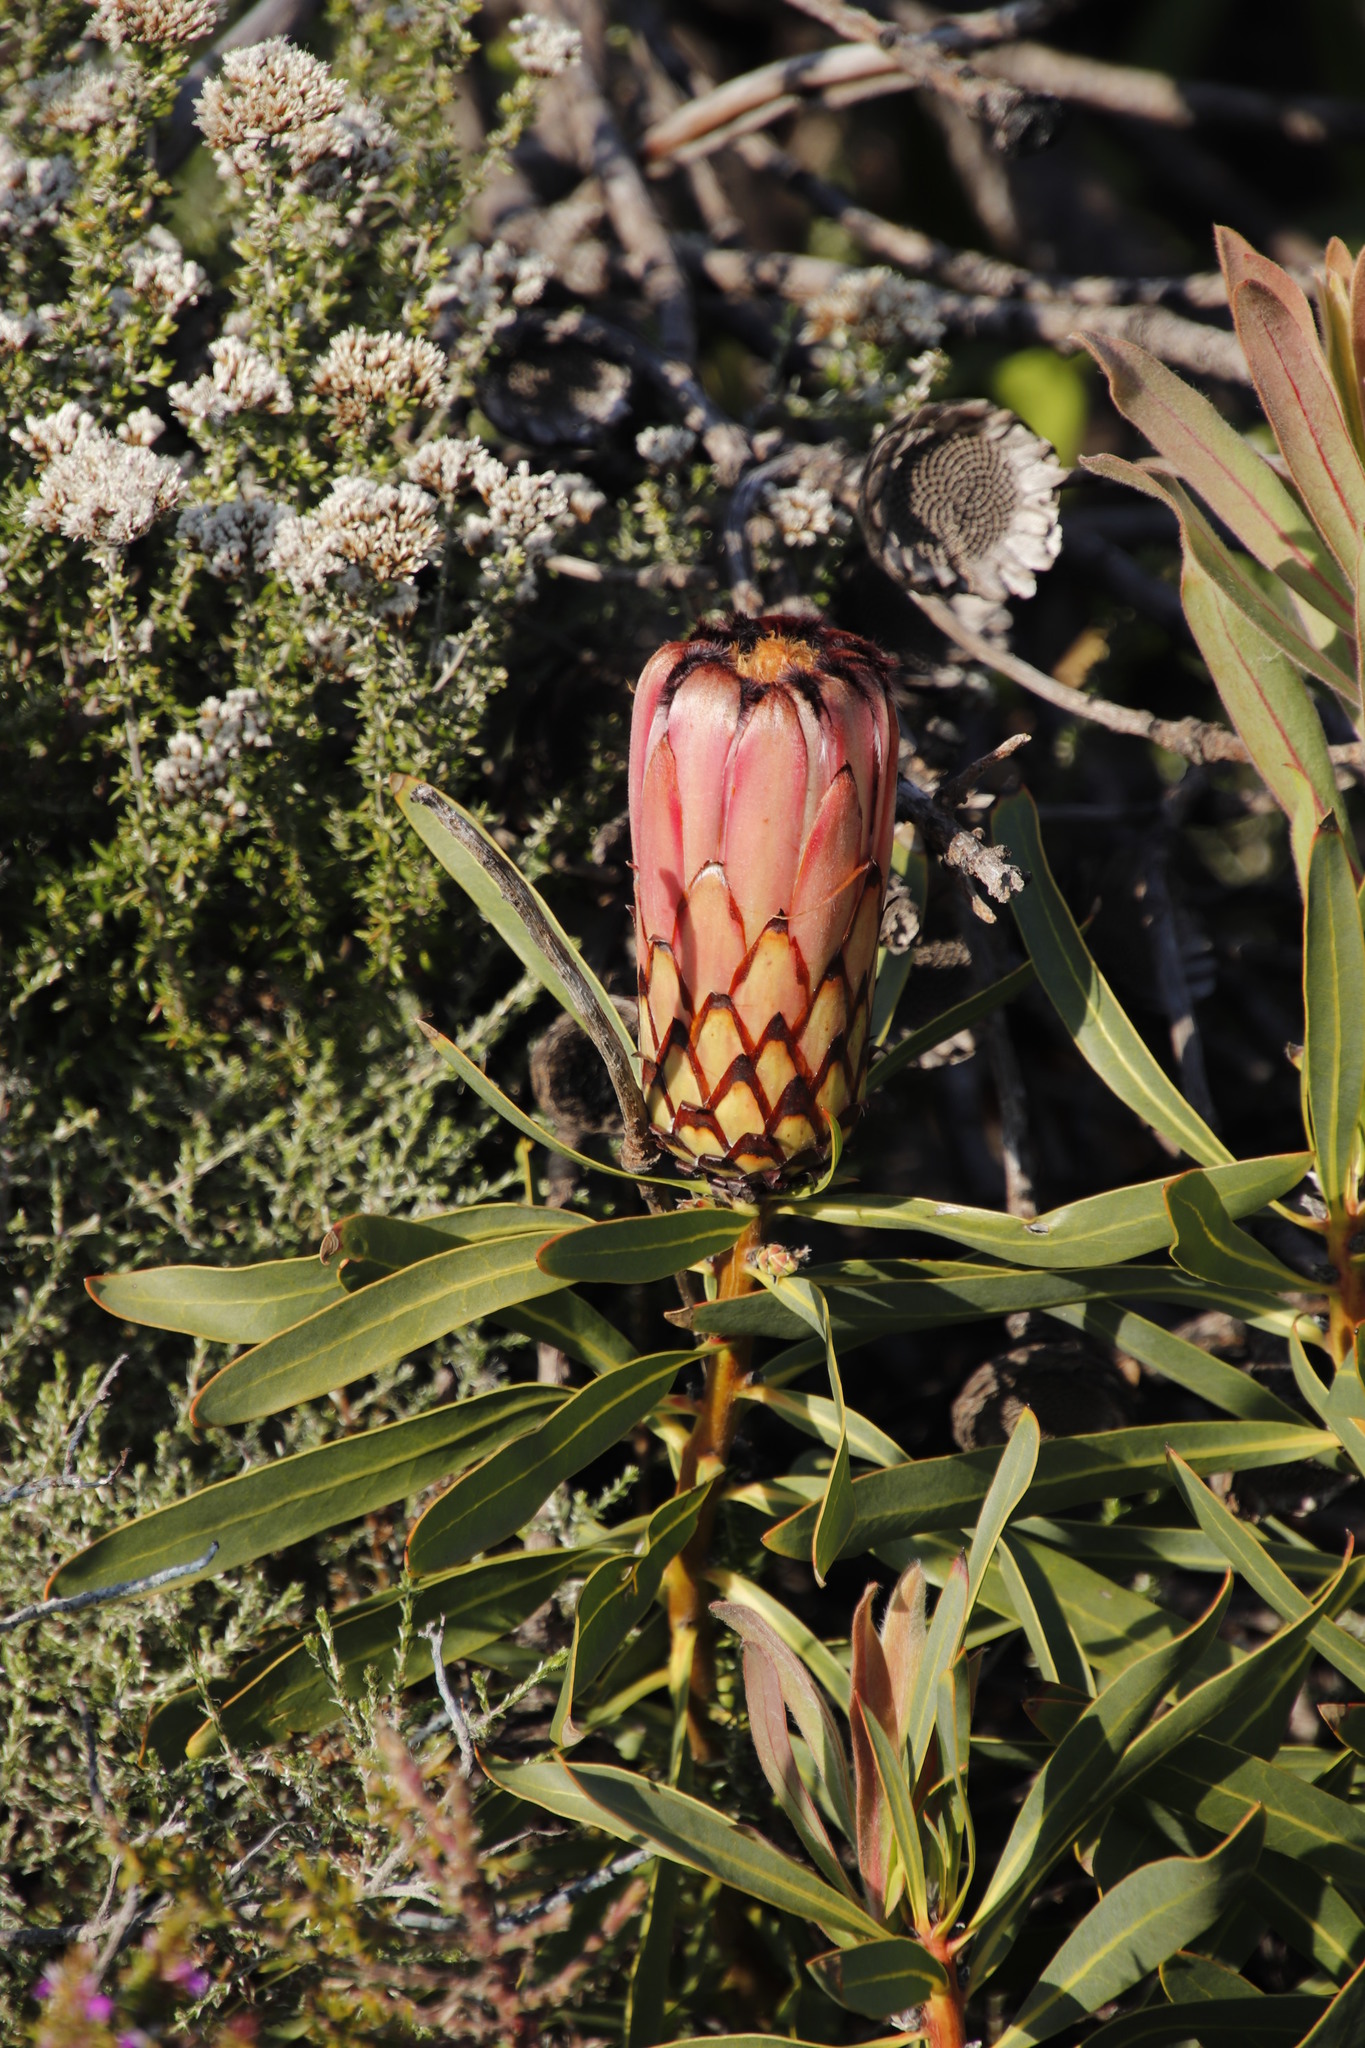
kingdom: Plantae
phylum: Tracheophyta
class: Magnoliopsida
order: Proteales
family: Proteaceae
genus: Protea
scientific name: Protea
